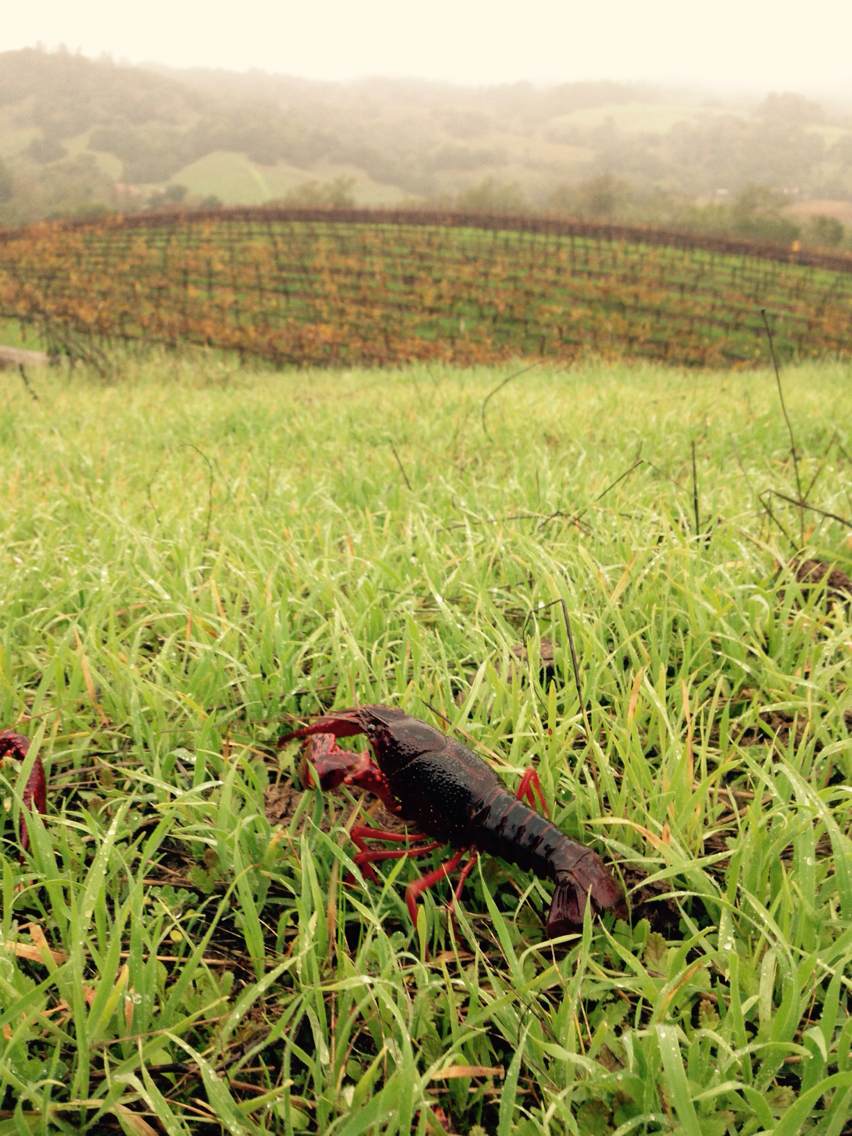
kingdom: Animalia
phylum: Arthropoda
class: Malacostraca
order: Decapoda
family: Cambaridae
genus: Procambarus
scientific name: Procambarus clarkii
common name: Red swamp crayfish
